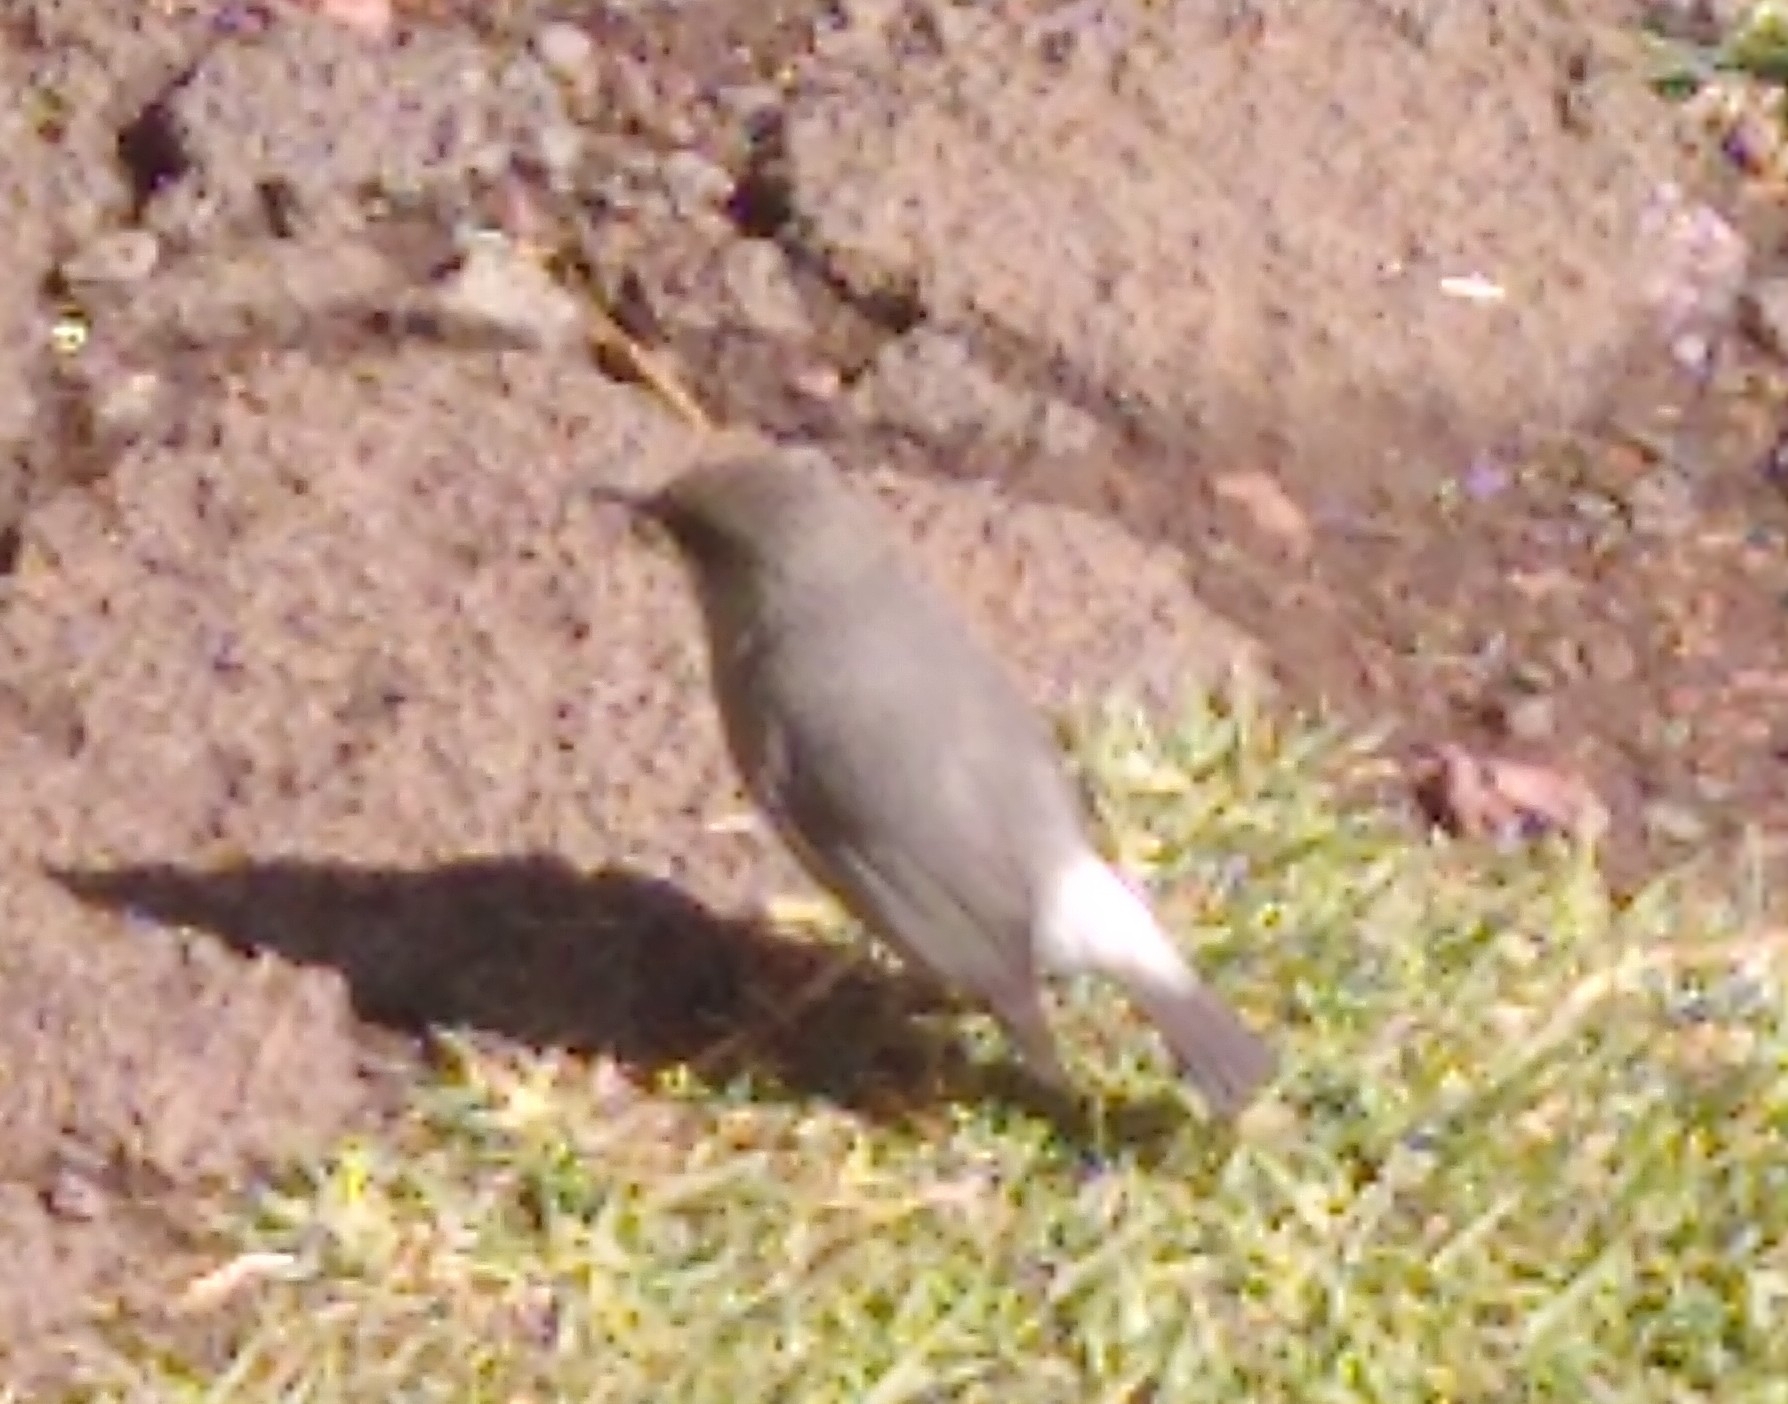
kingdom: Animalia
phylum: Chordata
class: Aves
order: Passeriformes
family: Zosteropidae
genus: Zosterops
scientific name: Zosterops borbonicus
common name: Reunion grey white-eye
